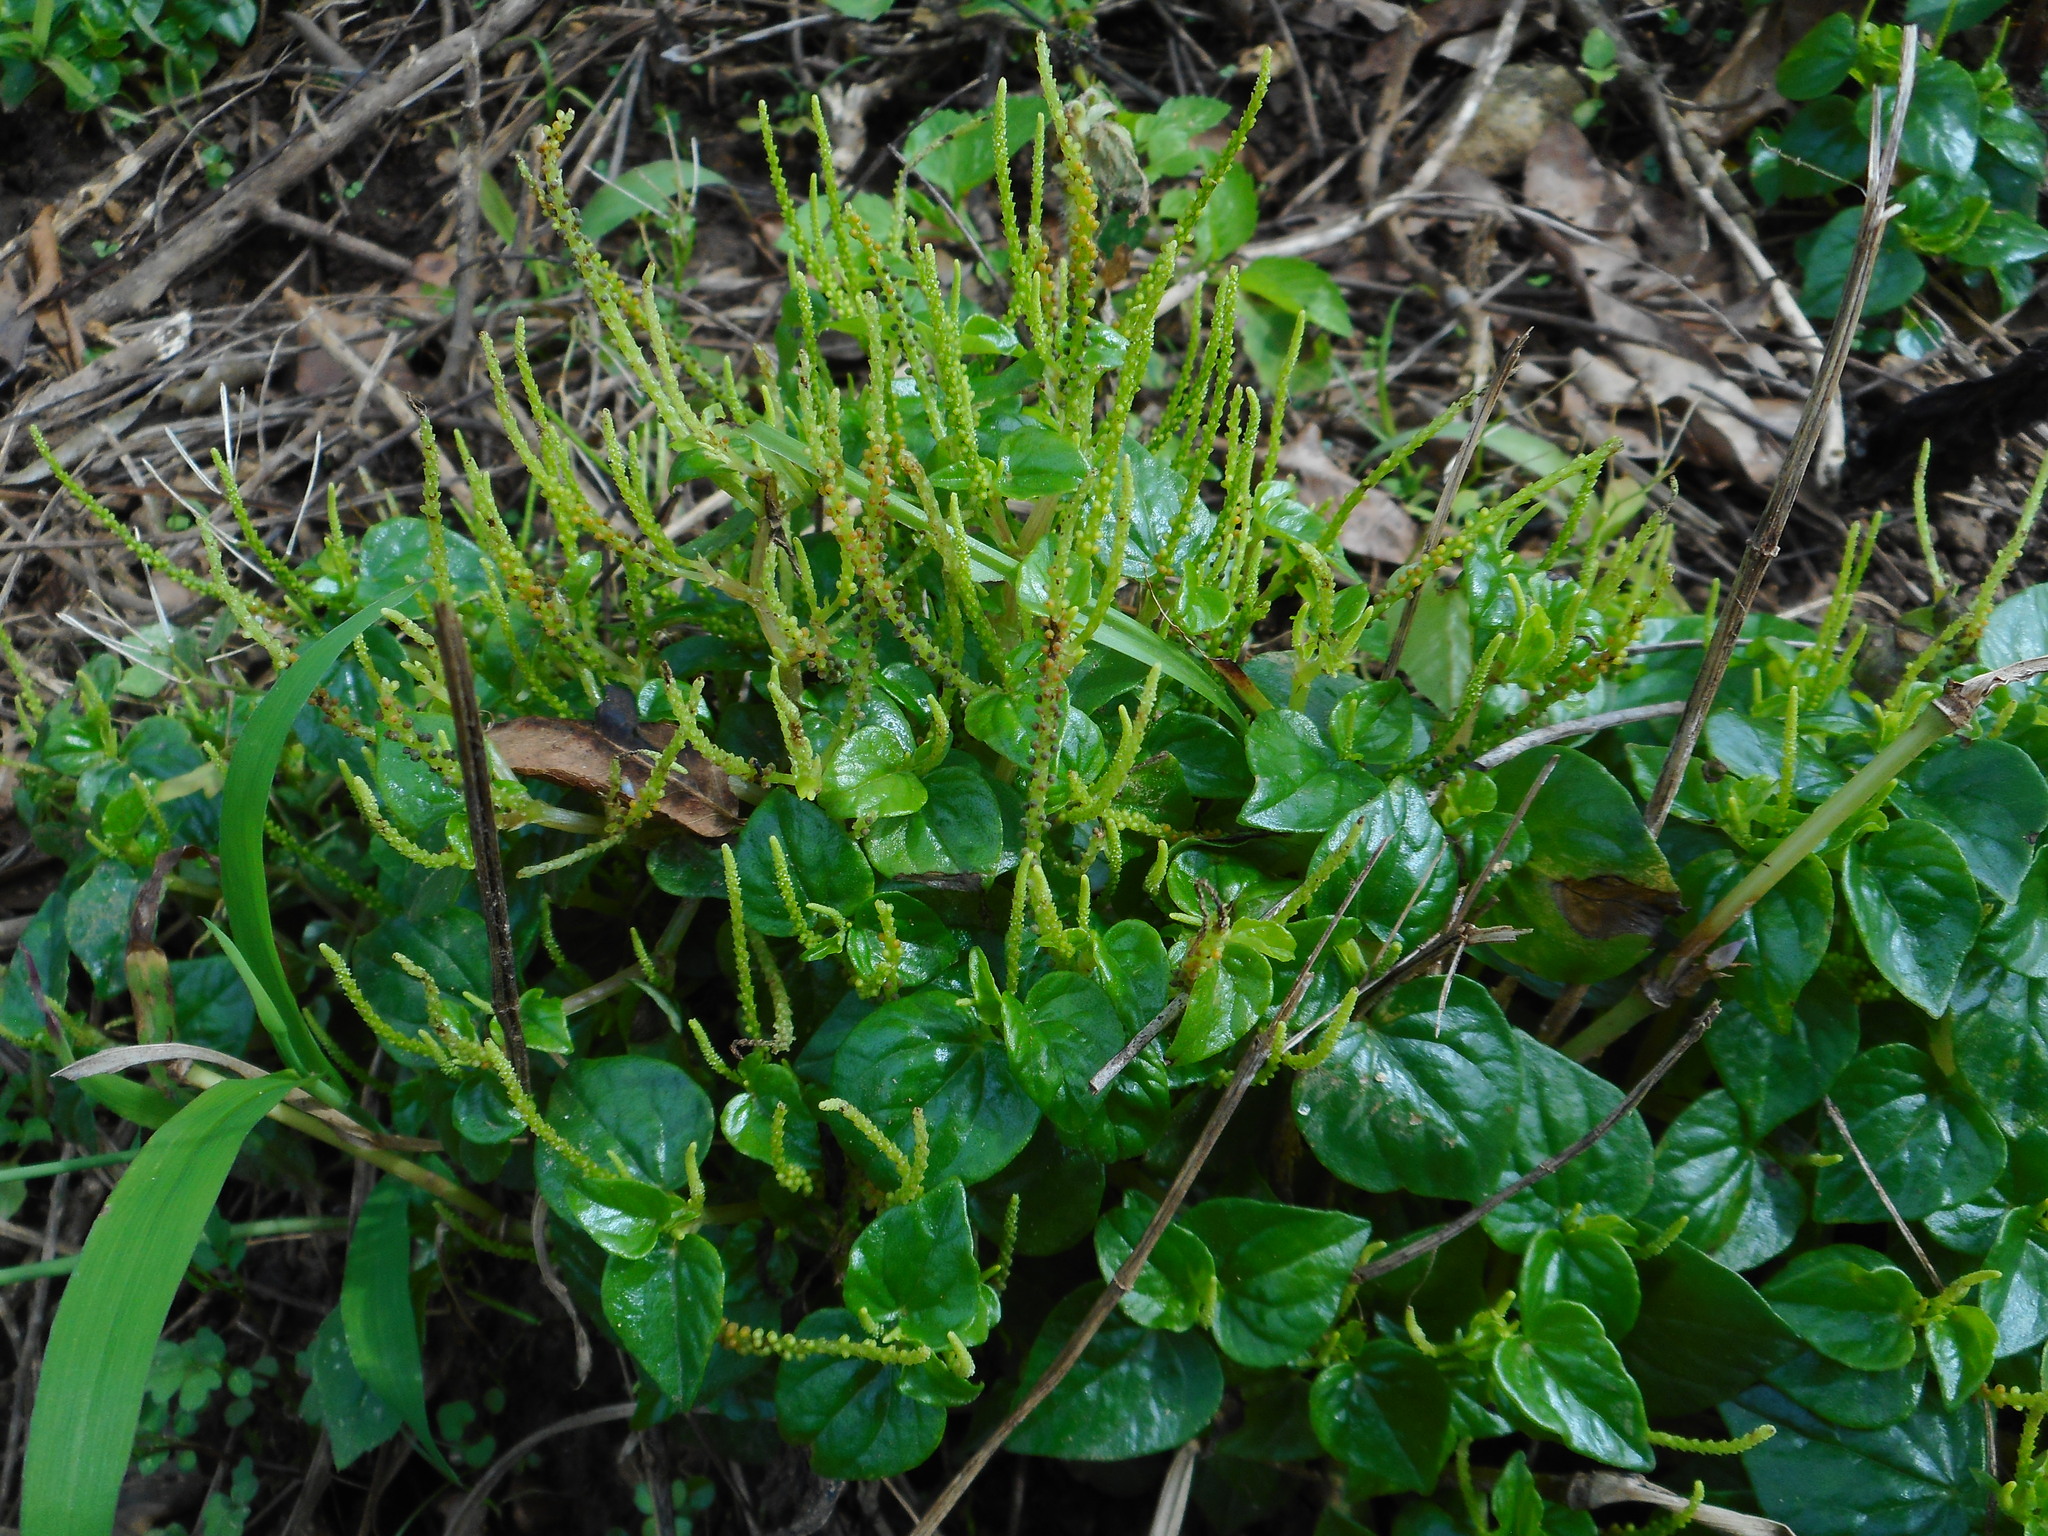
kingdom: Plantae
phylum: Tracheophyta
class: Magnoliopsida
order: Piperales
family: Piperaceae
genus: Peperomia
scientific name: Peperomia pellucida
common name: Man to man
